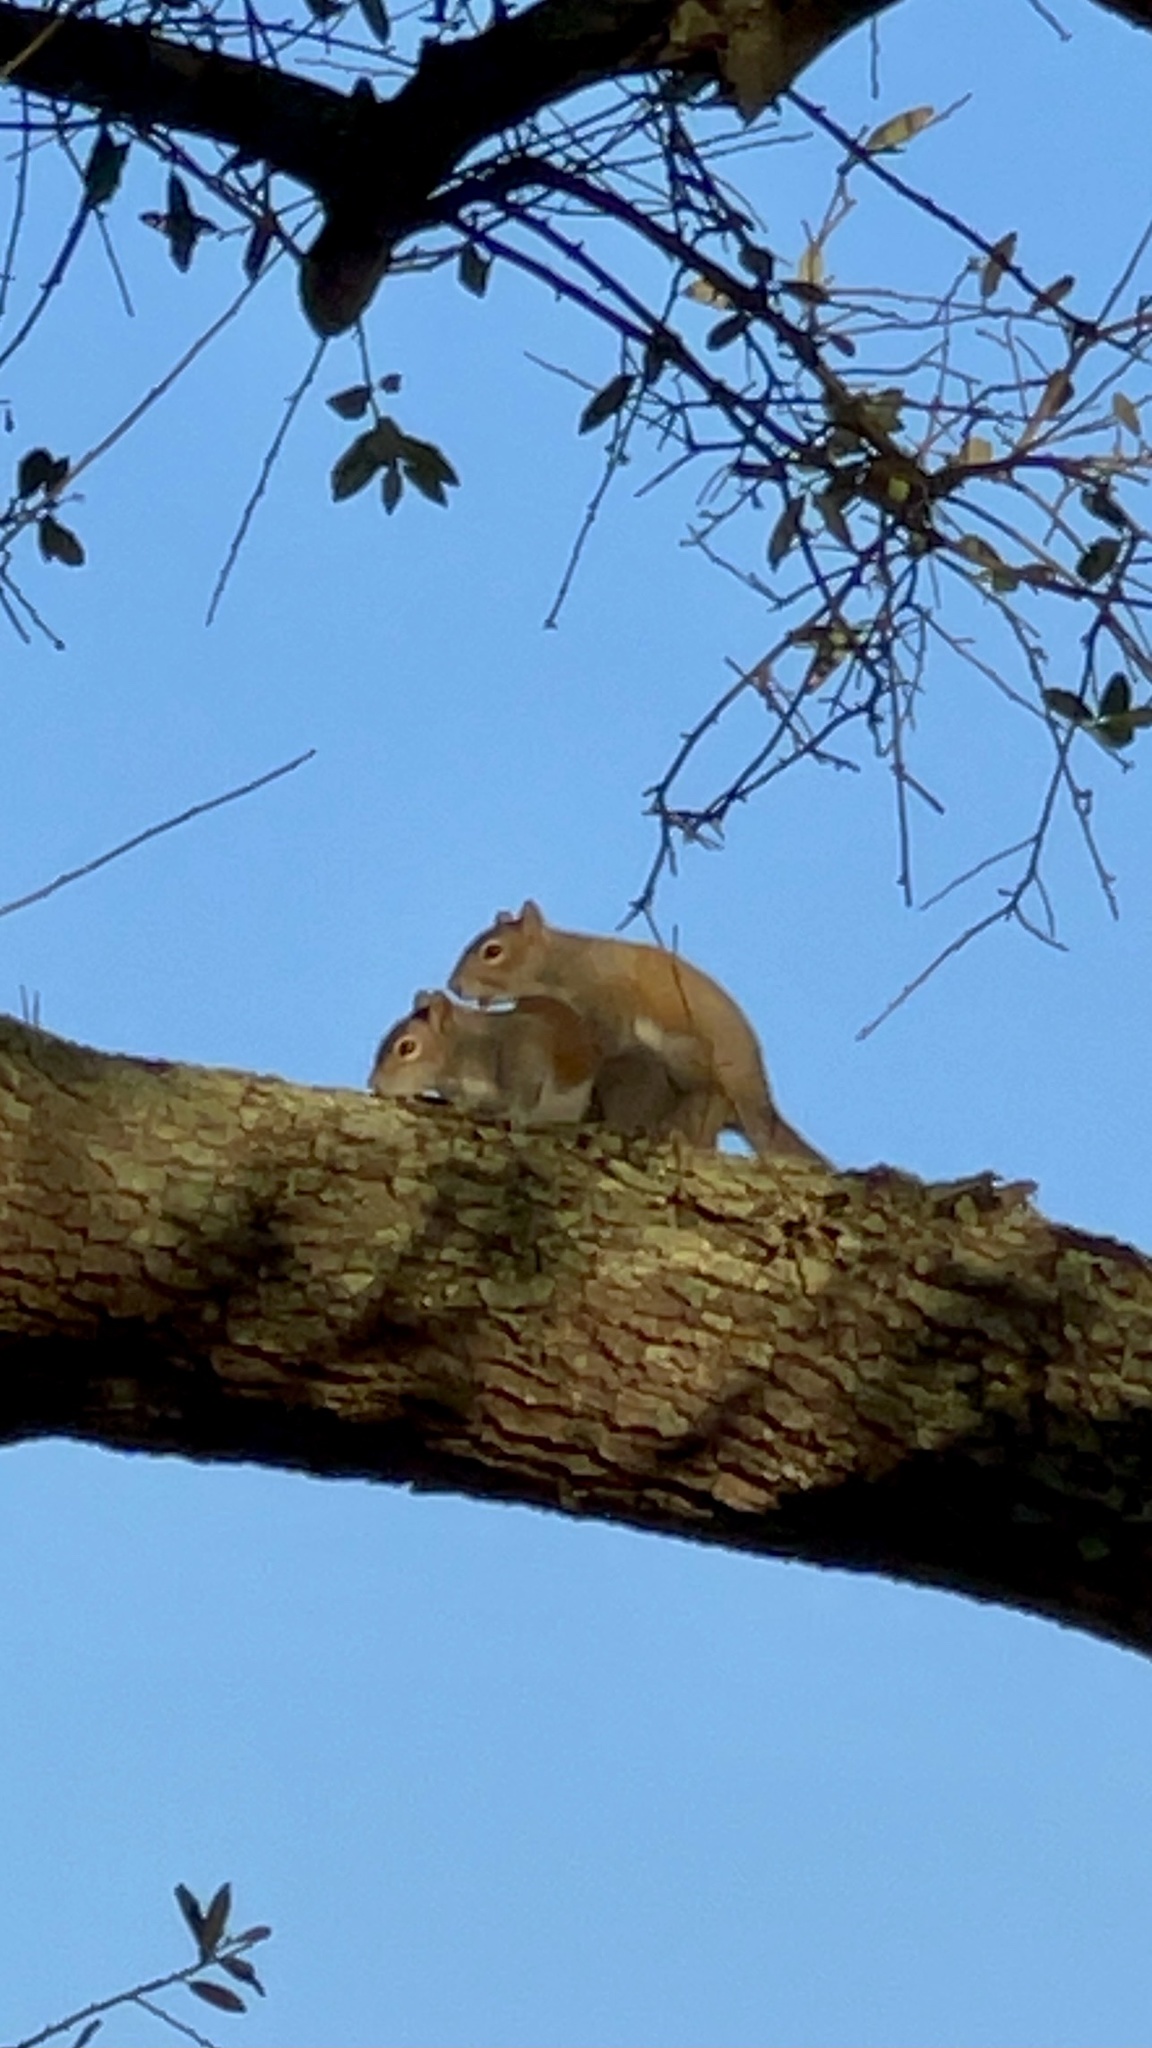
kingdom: Animalia
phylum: Chordata
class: Mammalia
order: Rodentia
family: Sciuridae
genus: Sciurus
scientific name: Sciurus carolinensis
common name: Eastern gray squirrel
